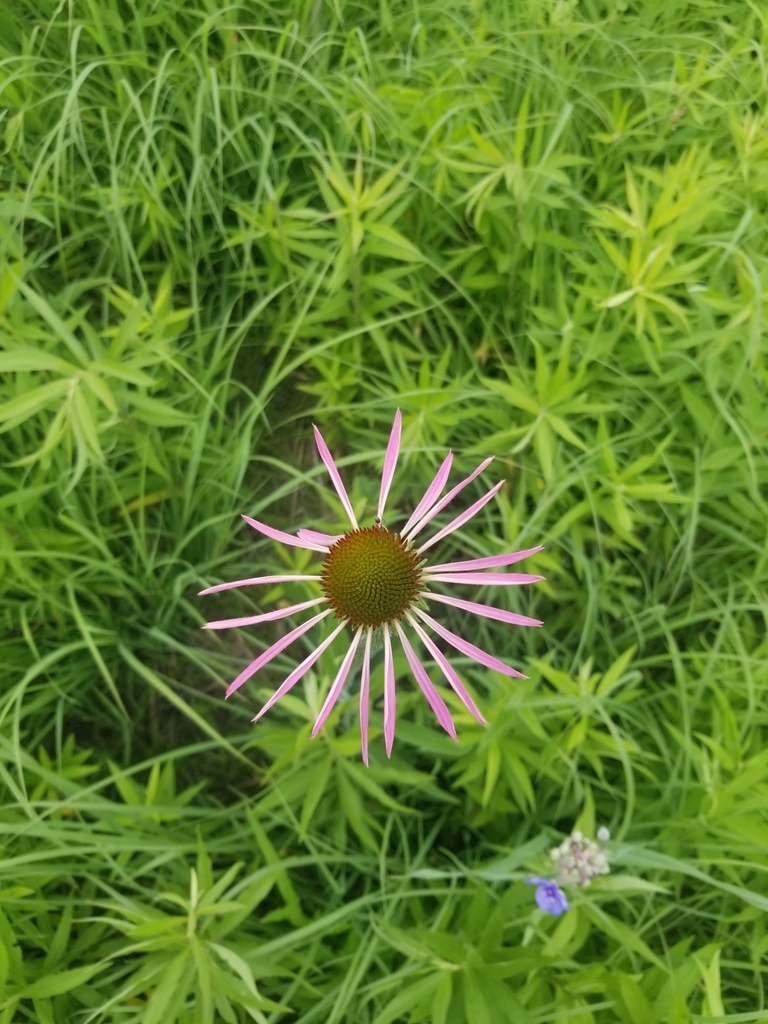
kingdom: Plantae
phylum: Tracheophyta
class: Magnoliopsida
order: Asterales
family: Asteraceae
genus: Echinacea
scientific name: Echinacea pallida
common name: Pale echinacea
